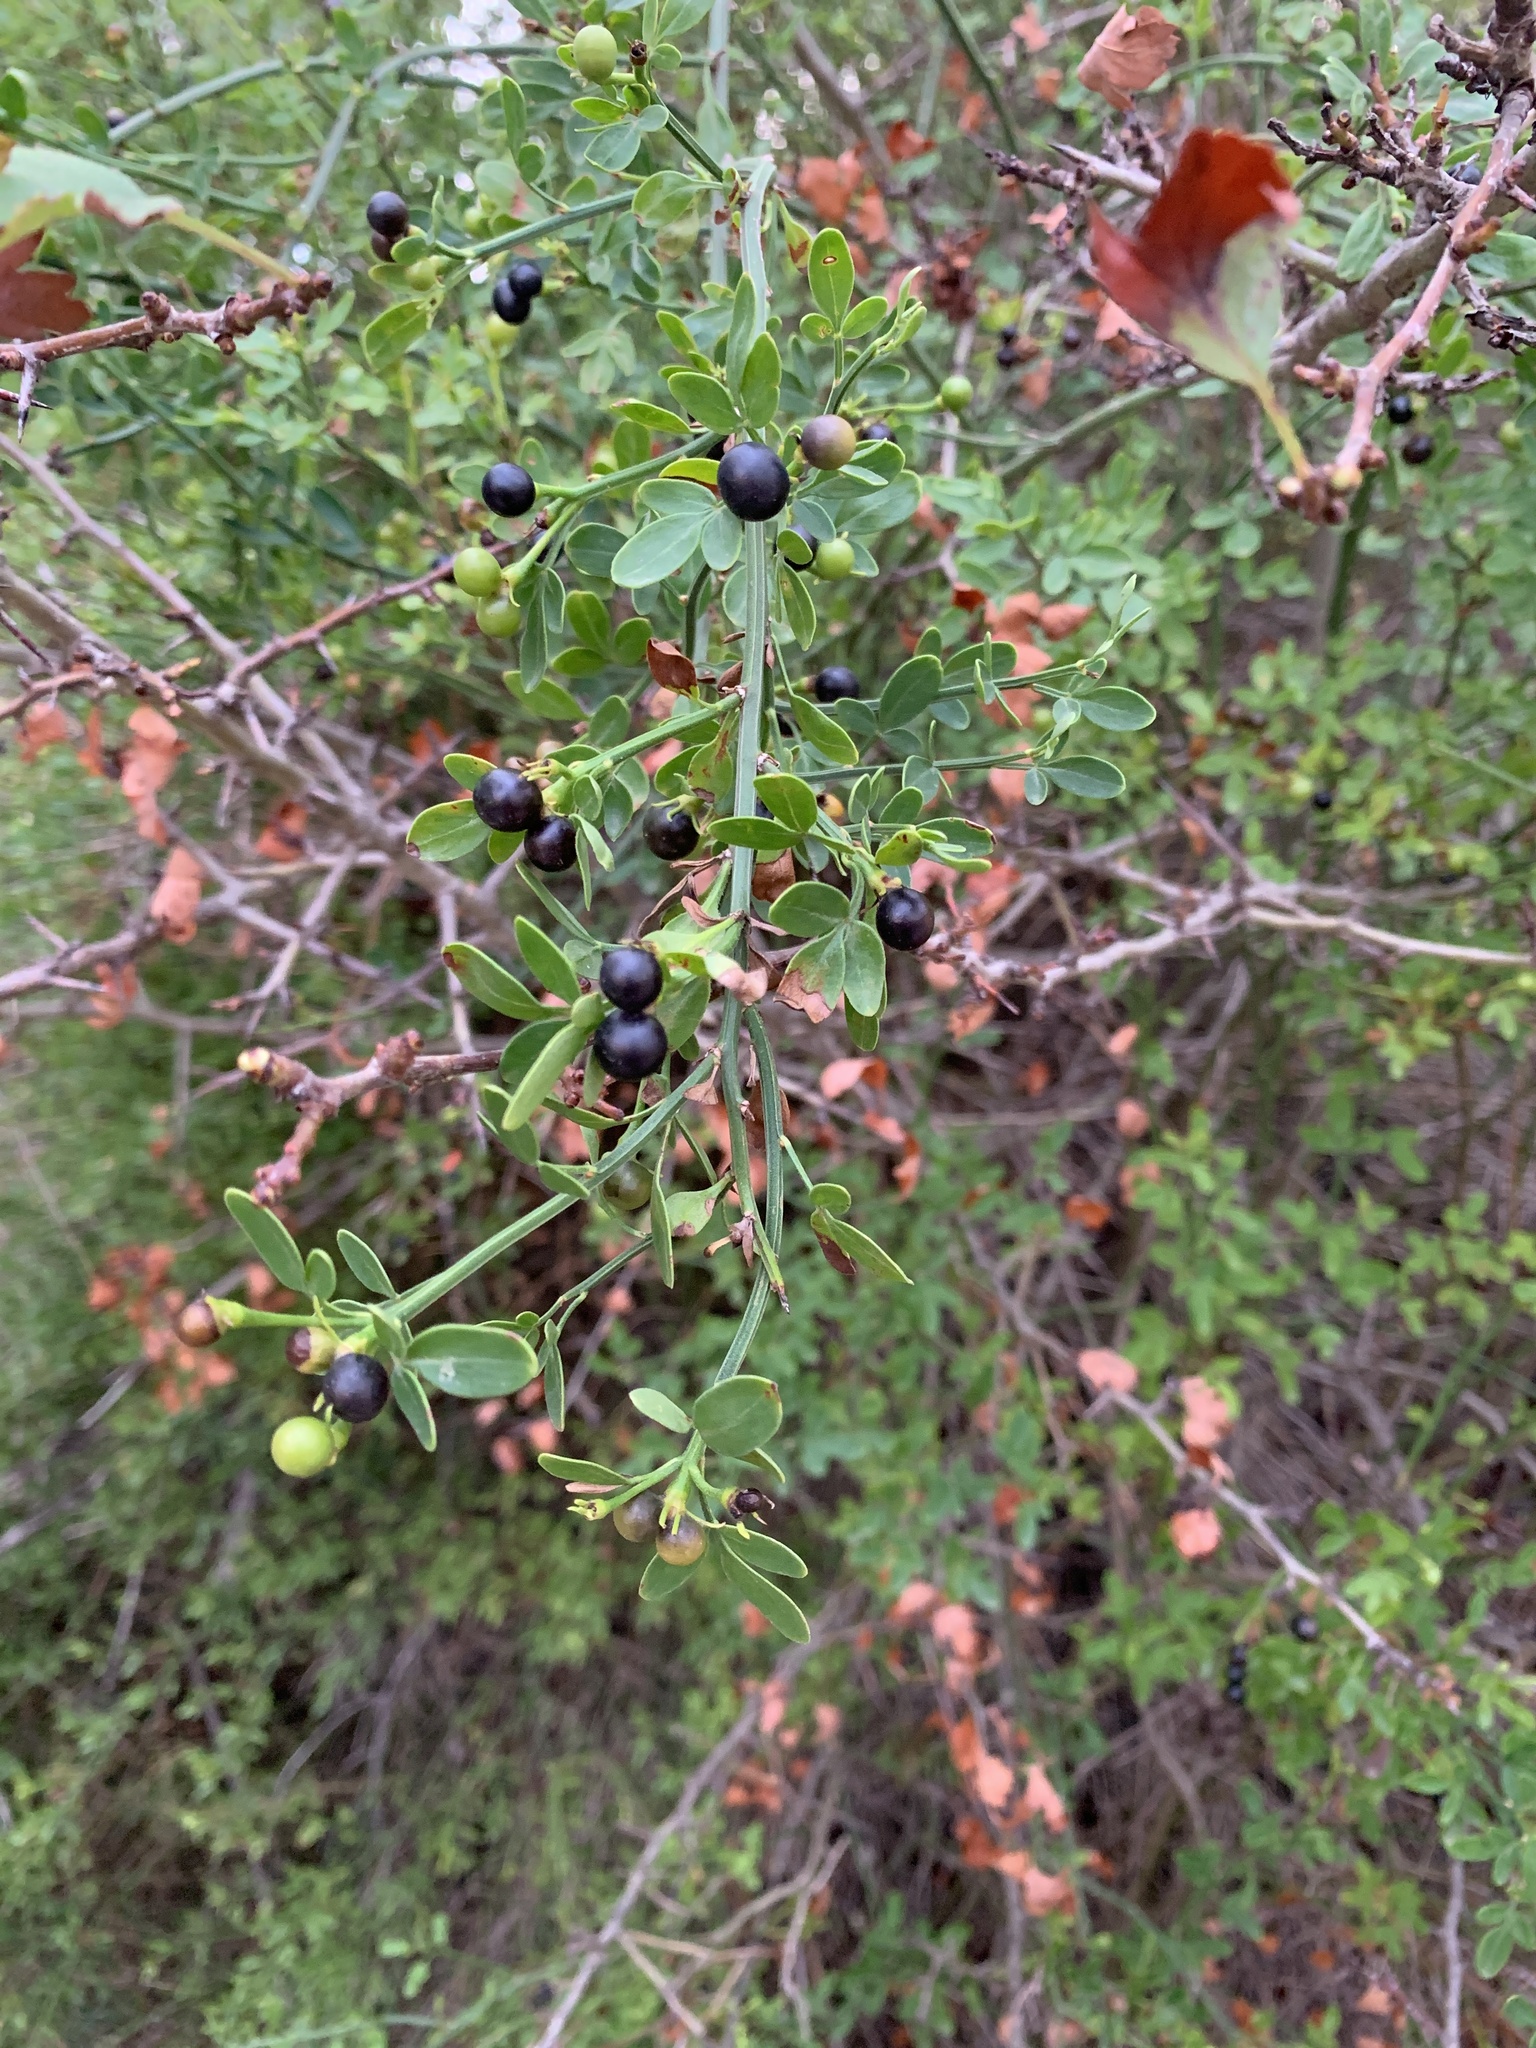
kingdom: Plantae
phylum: Tracheophyta
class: Magnoliopsida
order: Lamiales
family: Oleaceae
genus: Chrysojasminum
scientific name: Chrysojasminum fruticans
